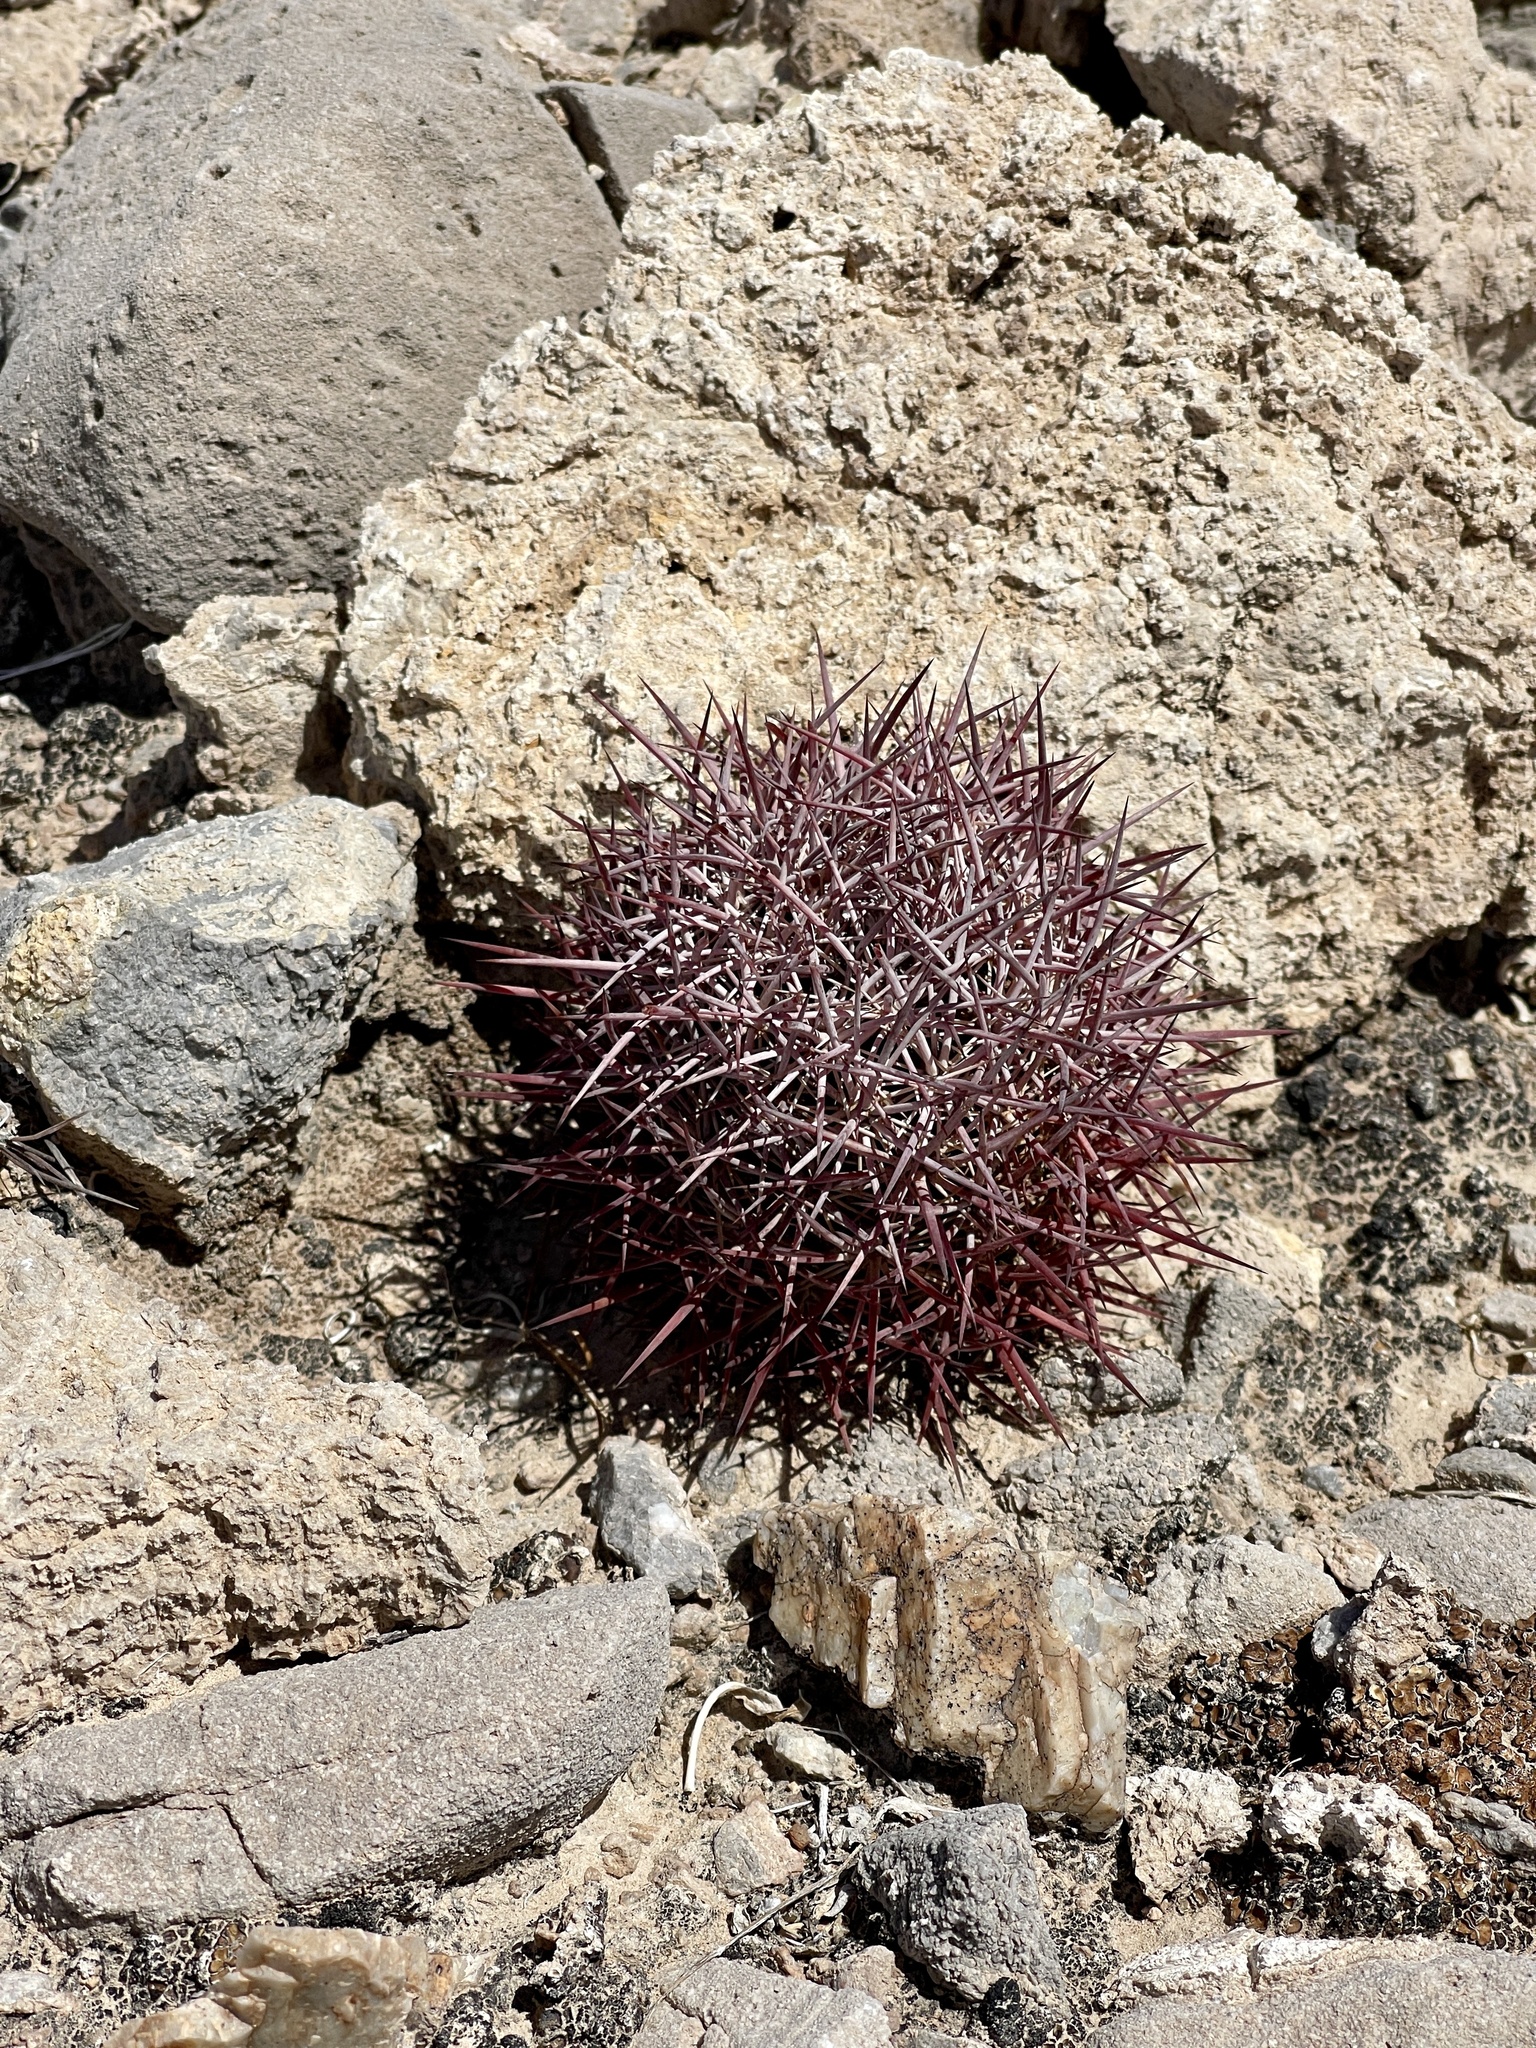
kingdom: Plantae
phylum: Tracheophyta
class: Magnoliopsida
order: Caryophyllales
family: Cactaceae
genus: Sclerocactus
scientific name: Sclerocactus johnsonii
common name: Eight-spine fishhook cactus
